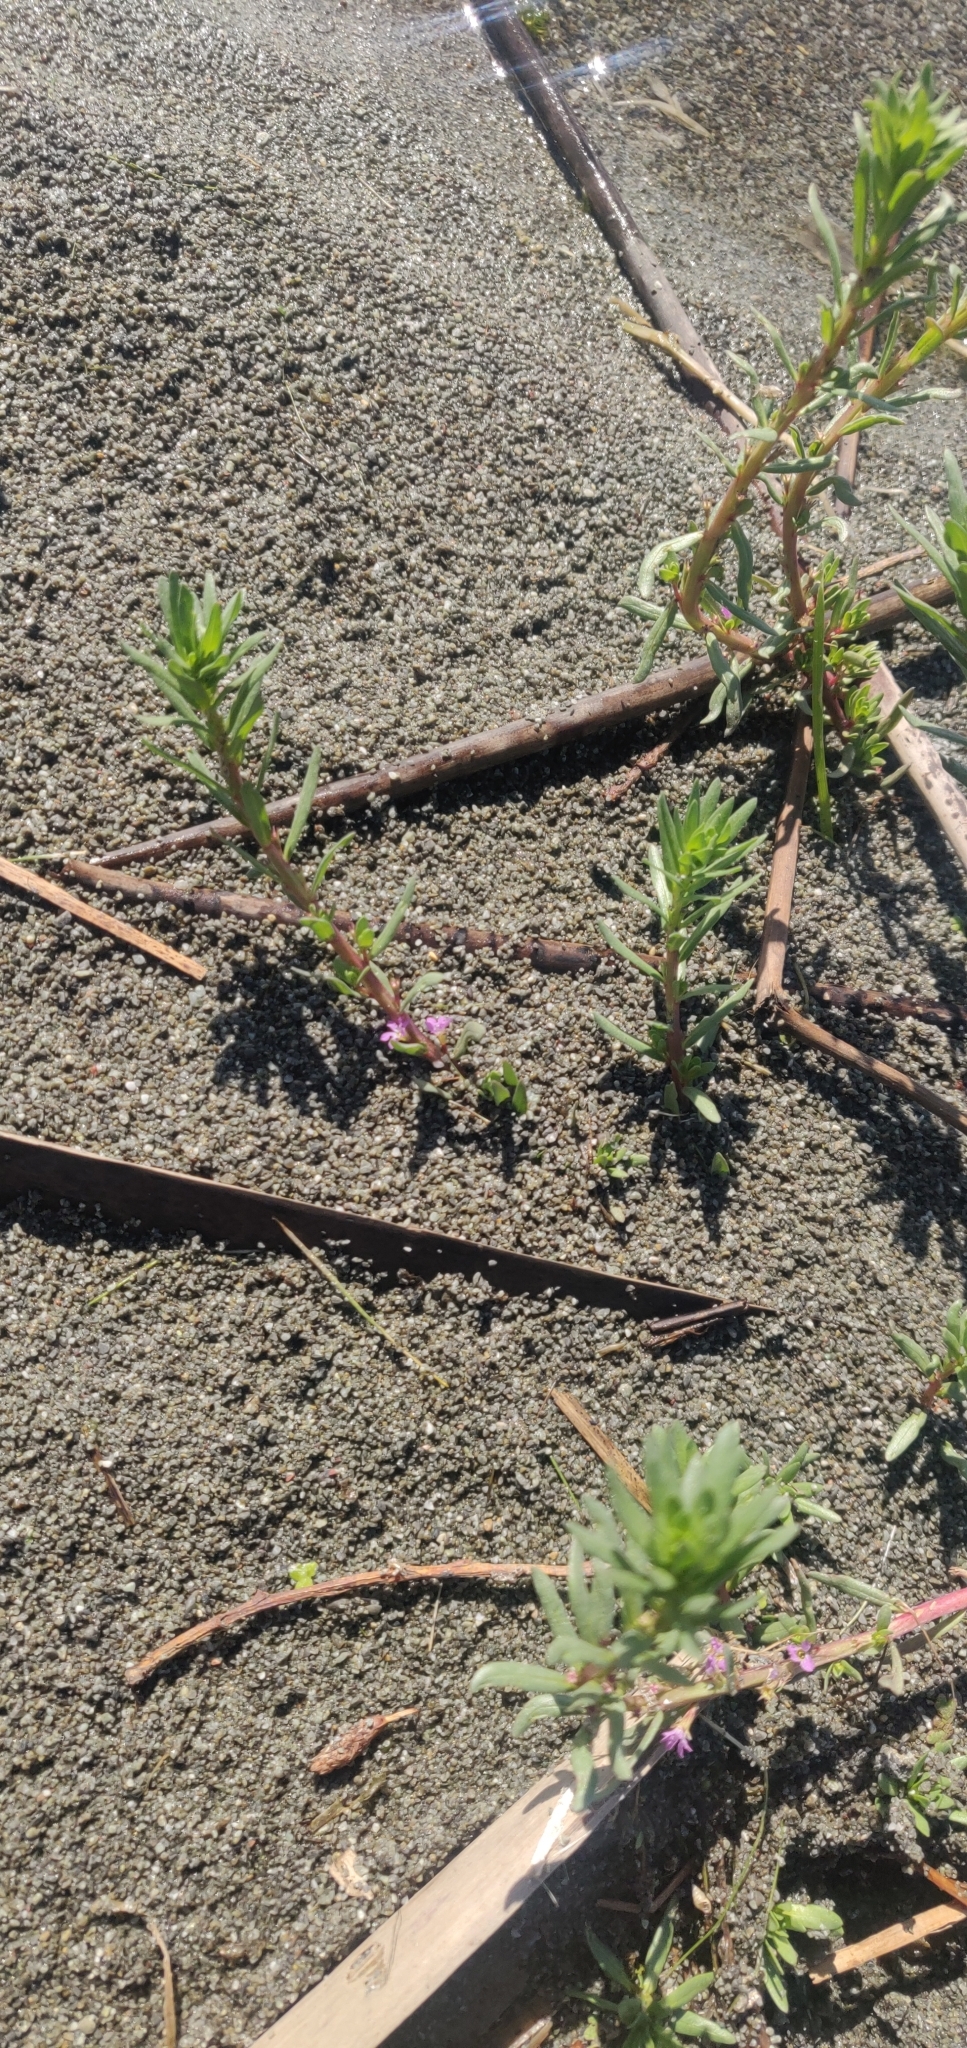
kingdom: Plantae
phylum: Tracheophyta
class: Magnoliopsida
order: Myrtales
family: Lythraceae
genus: Lythrum
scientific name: Lythrum hyssopifolia
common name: Grass-poly
